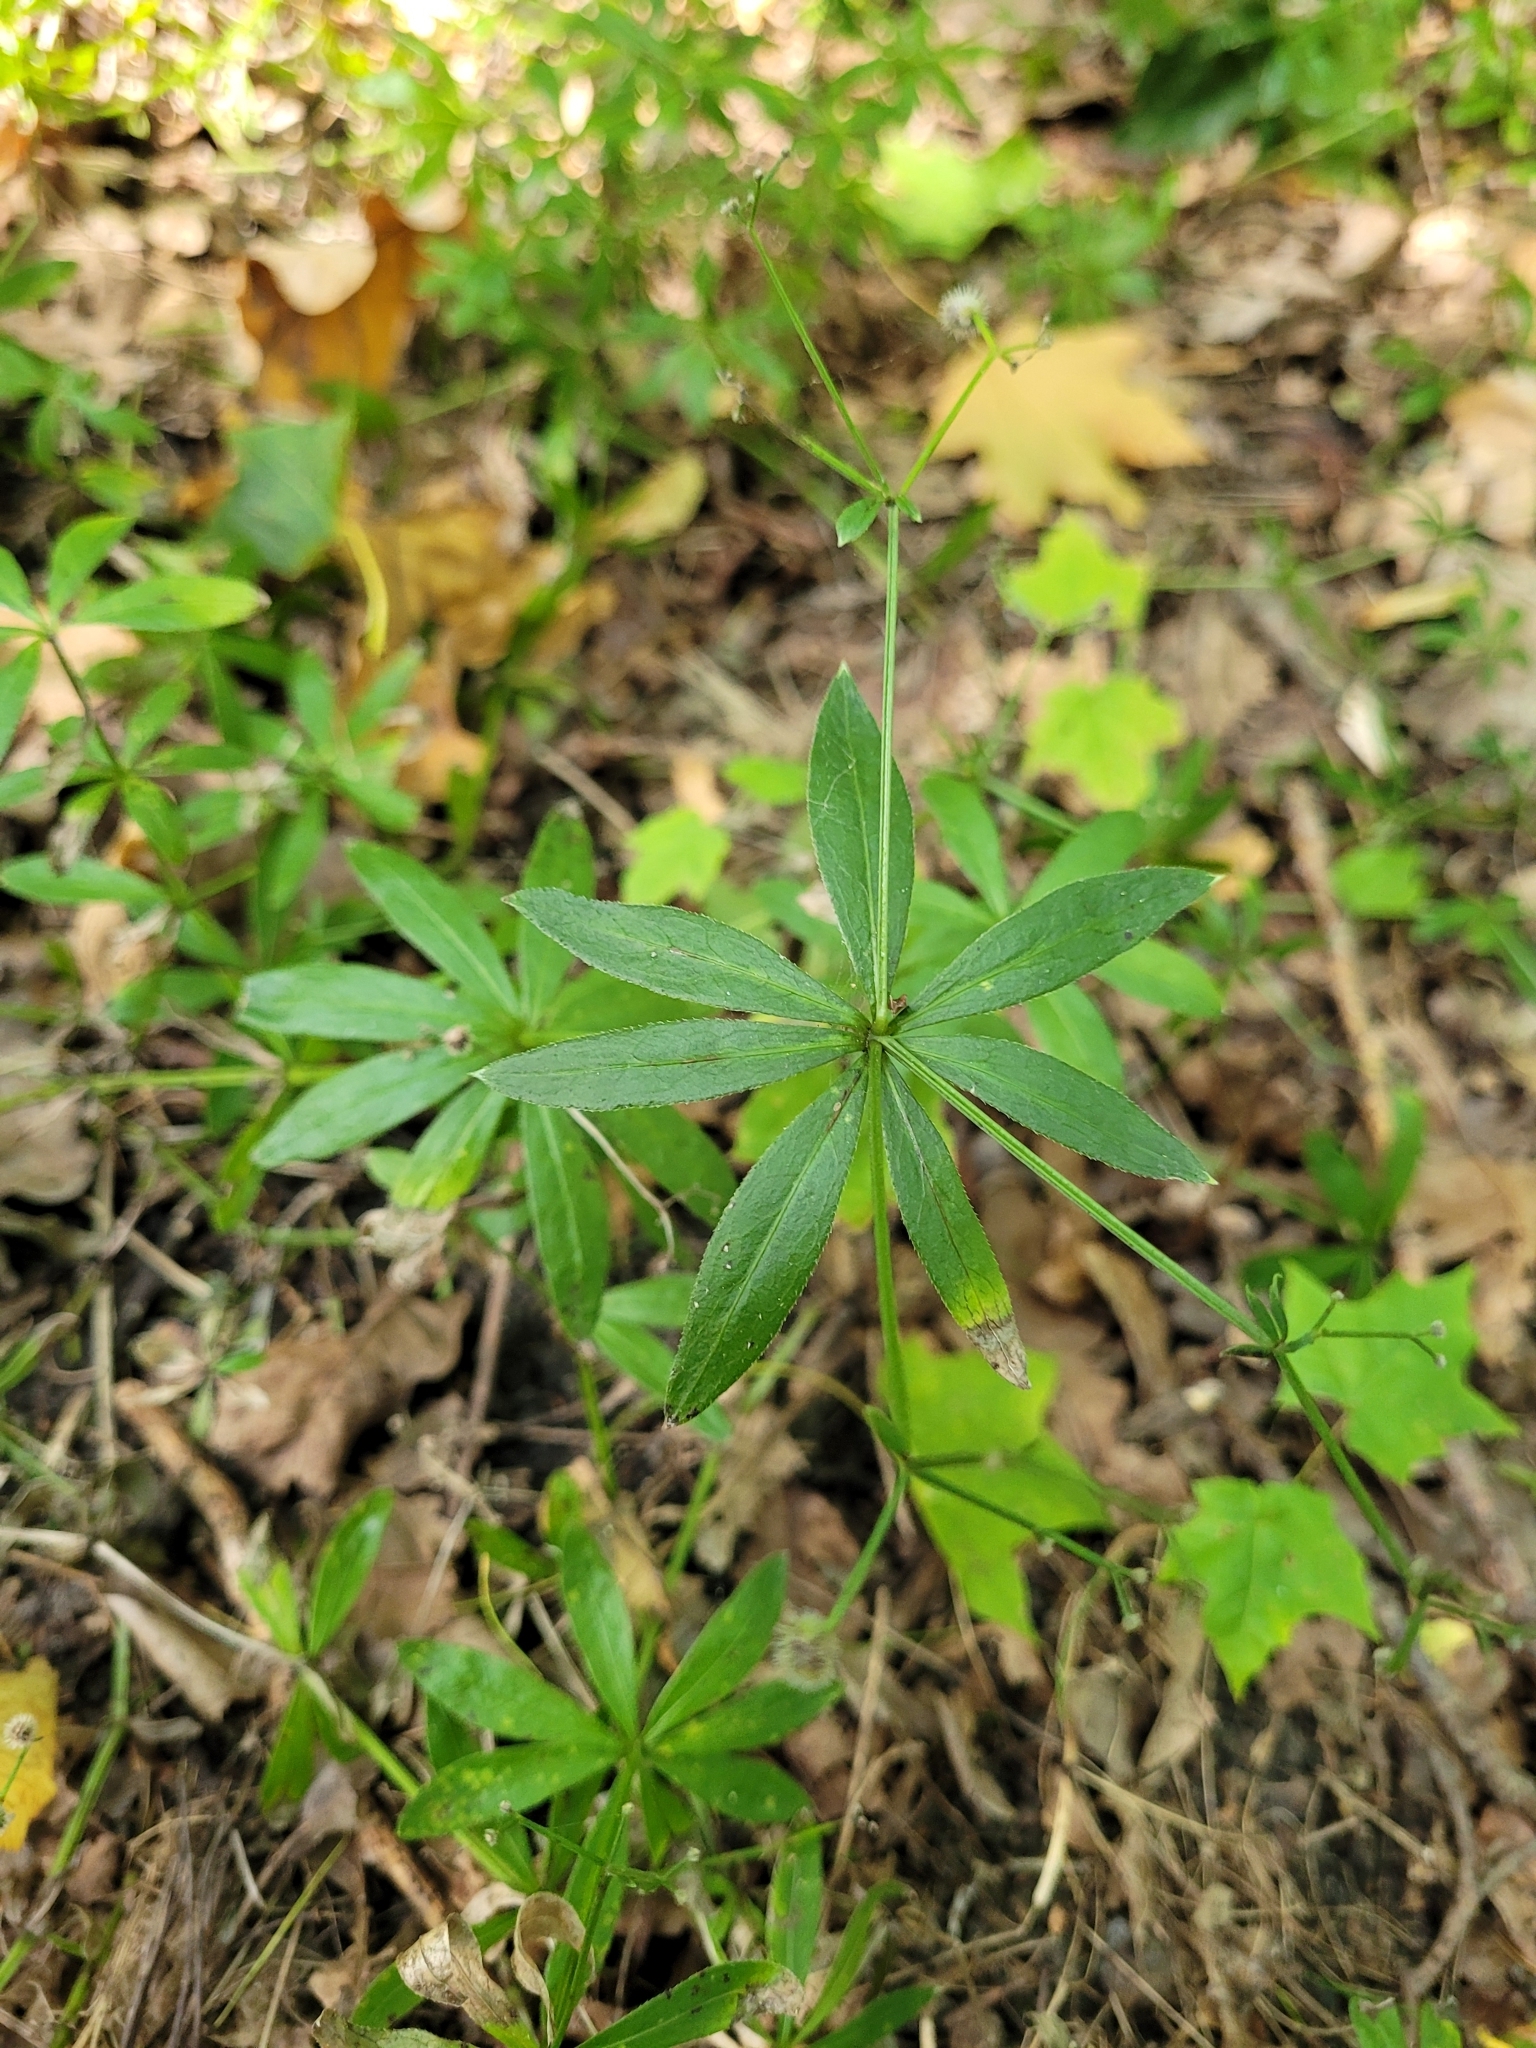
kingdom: Plantae
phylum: Tracheophyta
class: Magnoliopsida
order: Gentianales
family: Rubiaceae
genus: Galium
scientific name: Galium odoratum
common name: Sweet woodruff
